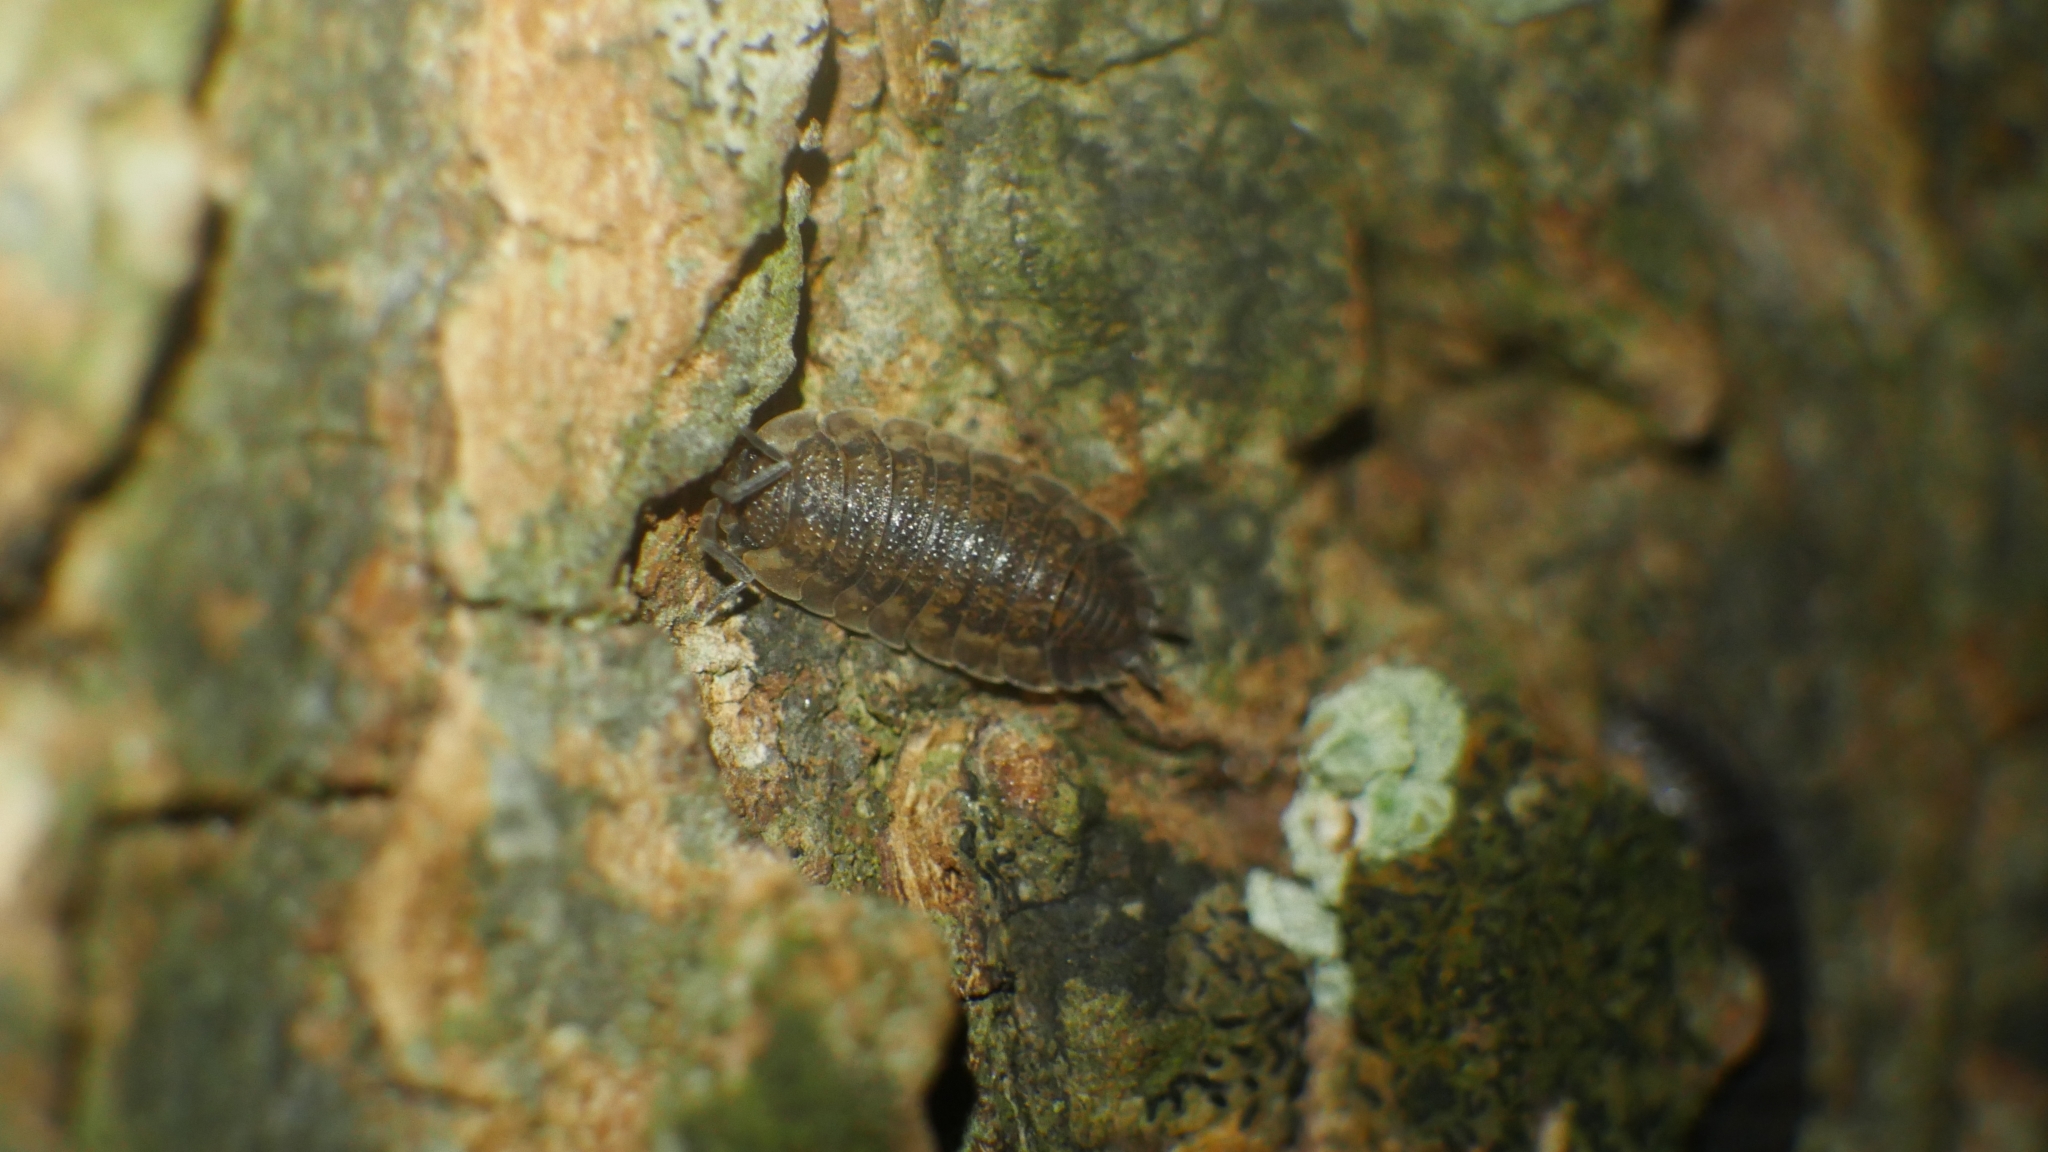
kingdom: Animalia
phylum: Arthropoda
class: Malacostraca
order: Isopoda
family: Porcellionidae
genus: Porcellio
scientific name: Porcellio scaber
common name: Common rough woodlouse
